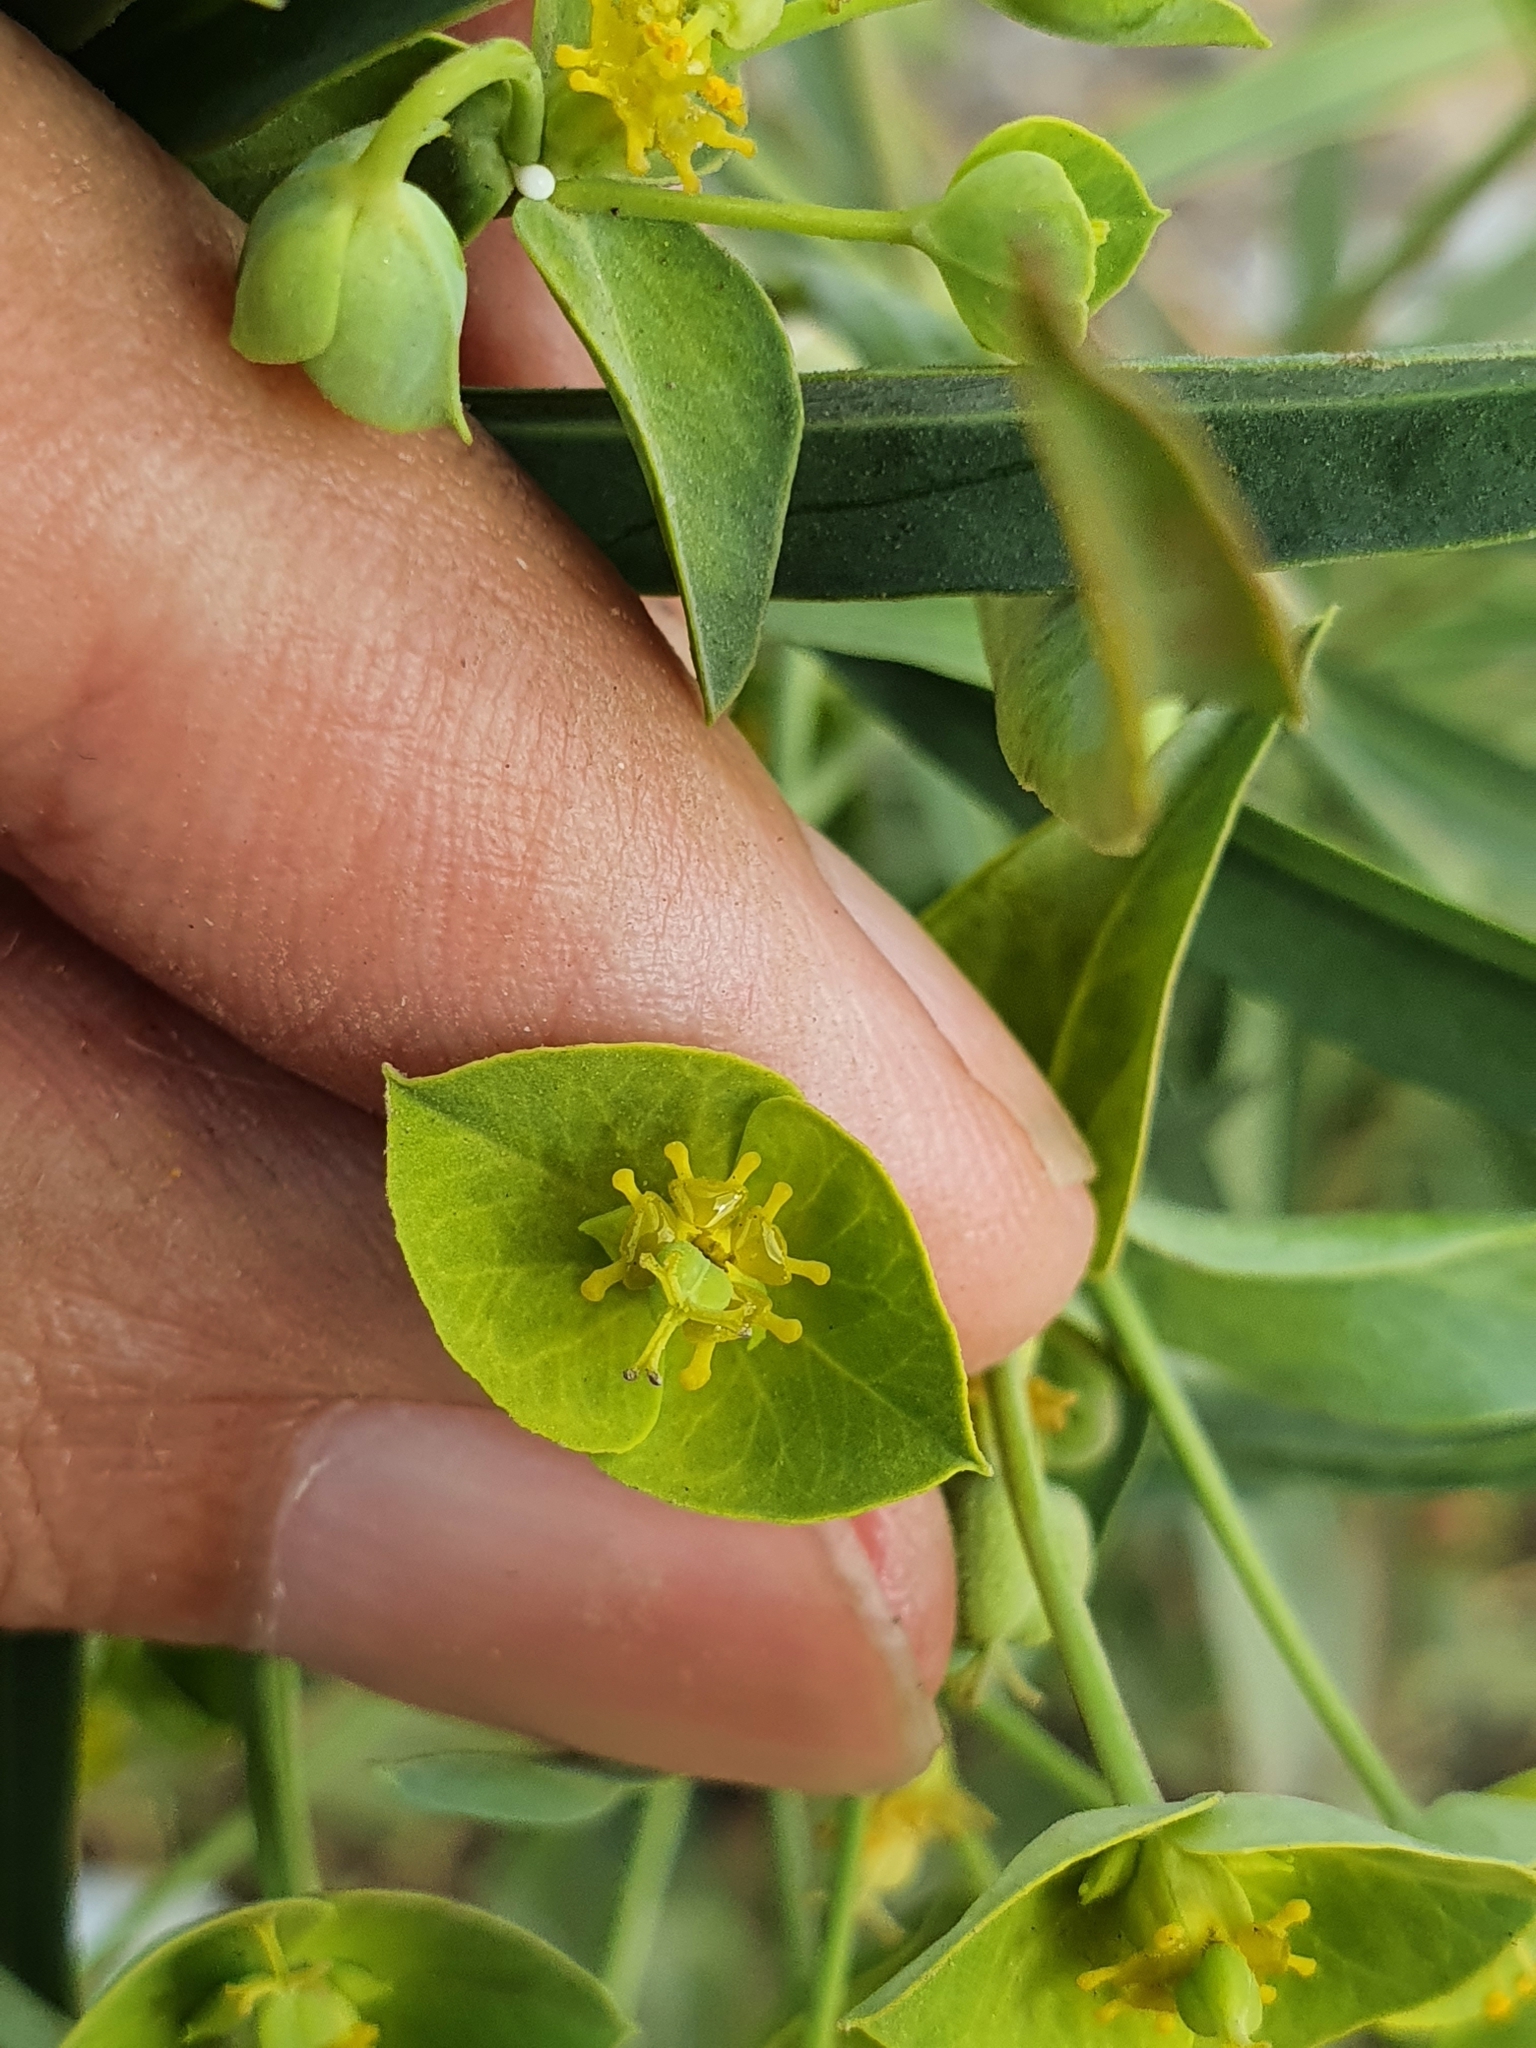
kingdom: Plantae
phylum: Tracheophyta
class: Magnoliopsida
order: Malpighiales
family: Euphorbiaceae
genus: Euphorbia
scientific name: Euphorbia biumbellata
